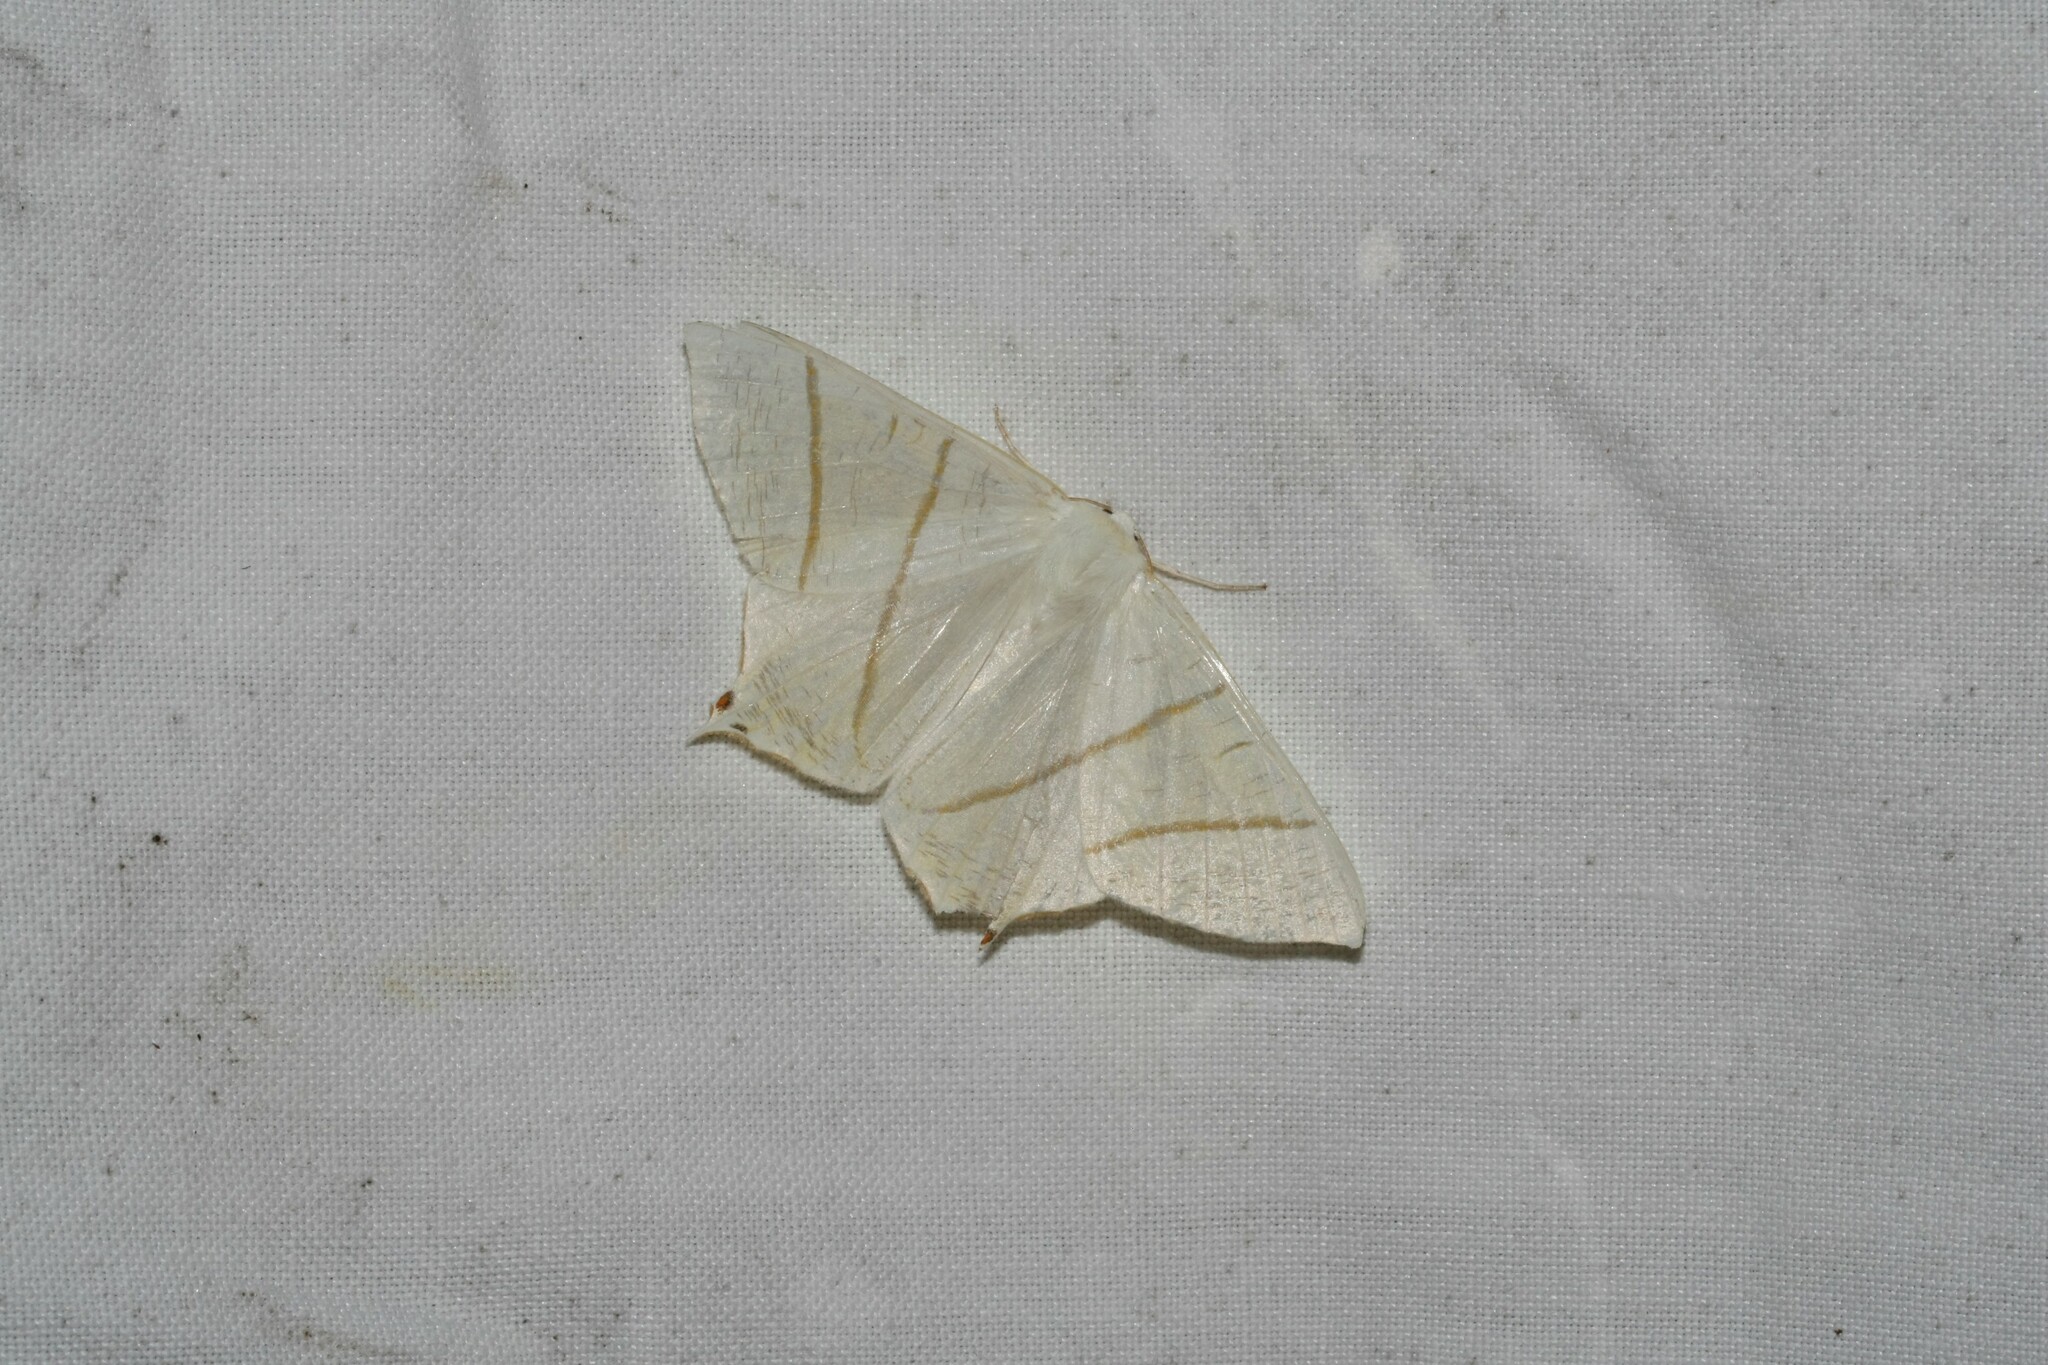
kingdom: Animalia
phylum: Arthropoda
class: Insecta
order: Lepidoptera
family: Geometridae
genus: Ourapteryx
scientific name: Ourapteryx sambucaria
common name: Swallow-tailed moth
